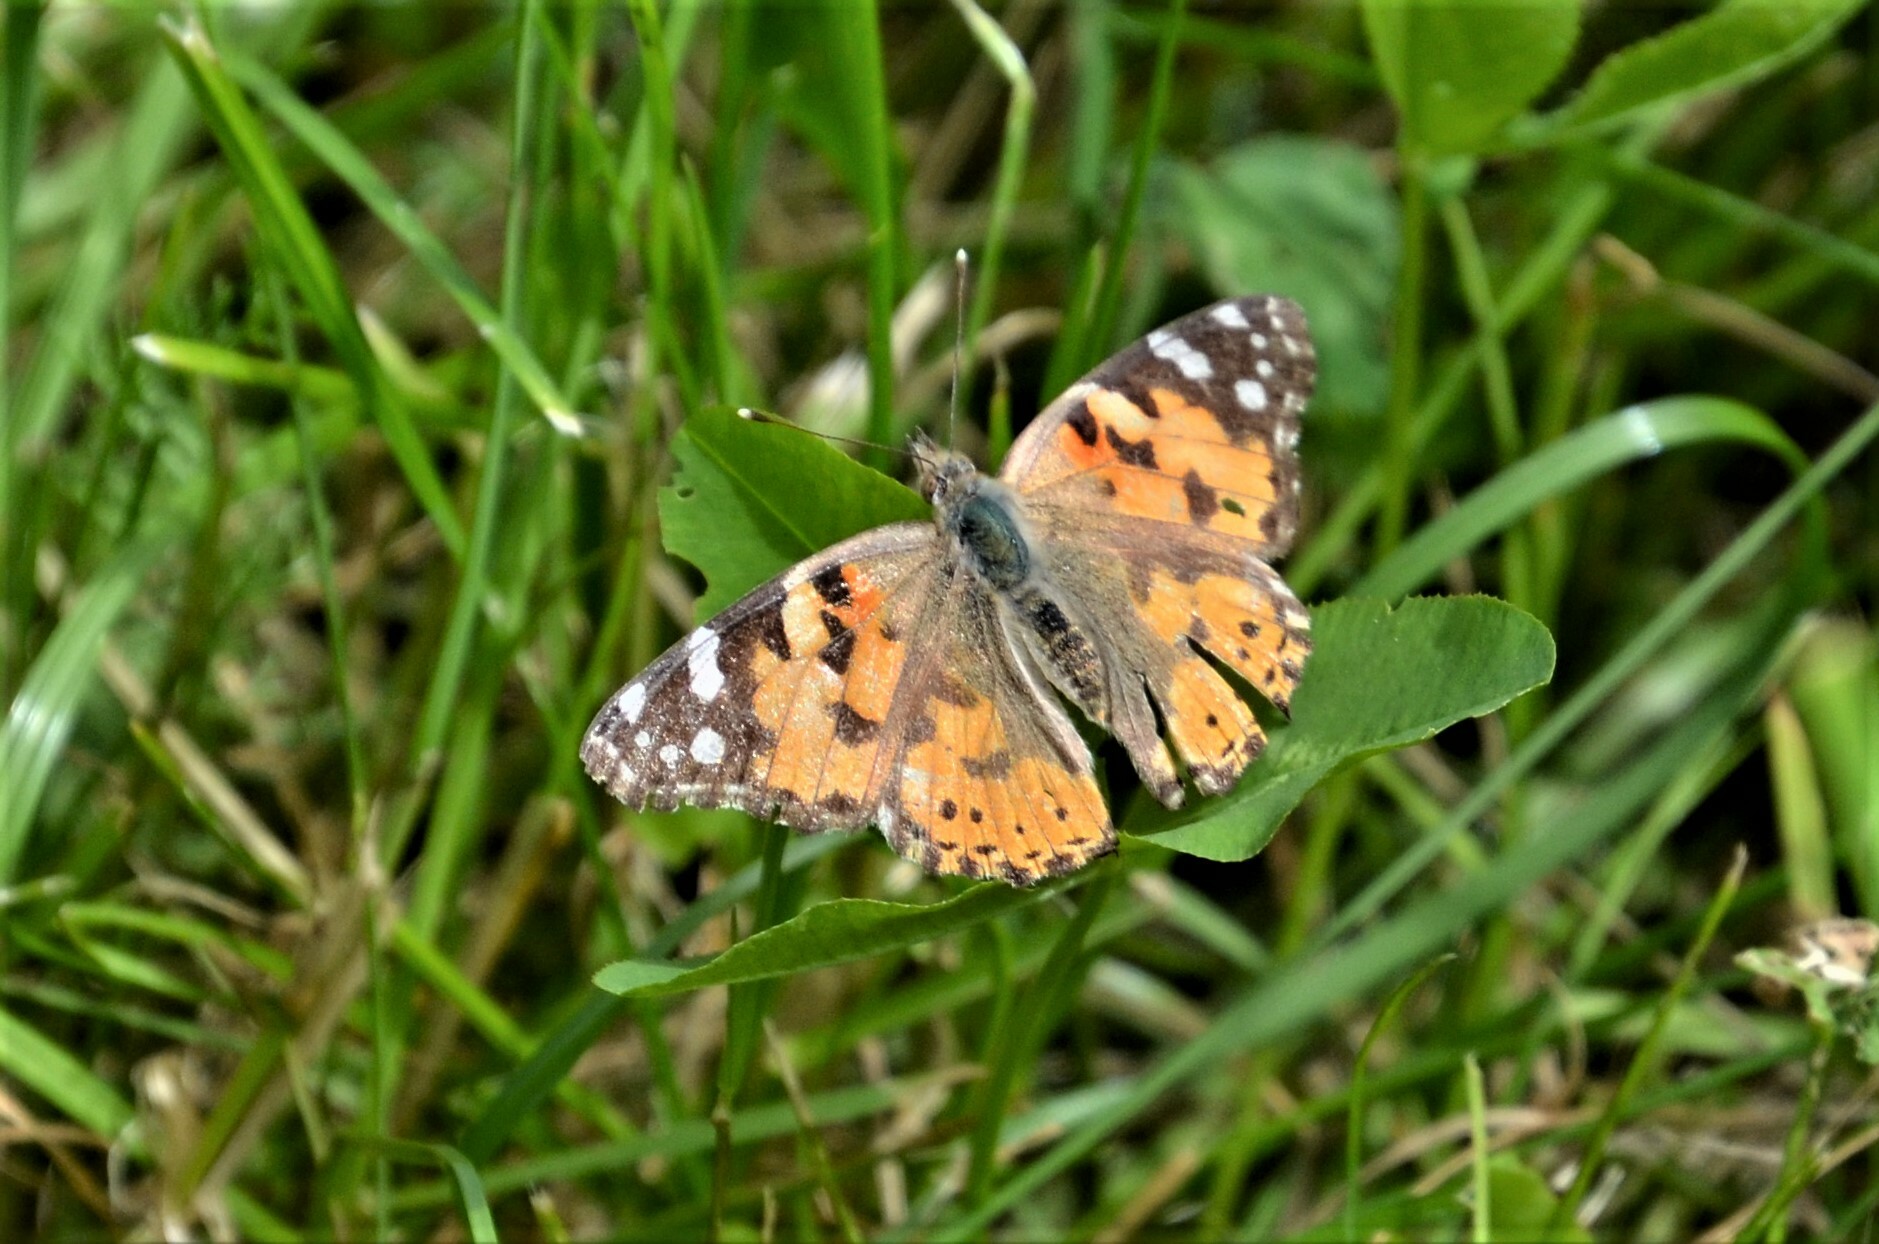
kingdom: Animalia
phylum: Arthropoda
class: Insecta
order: Lepidoptera
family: Nymphalidae
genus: Vanessa
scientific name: Vanessa cardui
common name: Painted lady
